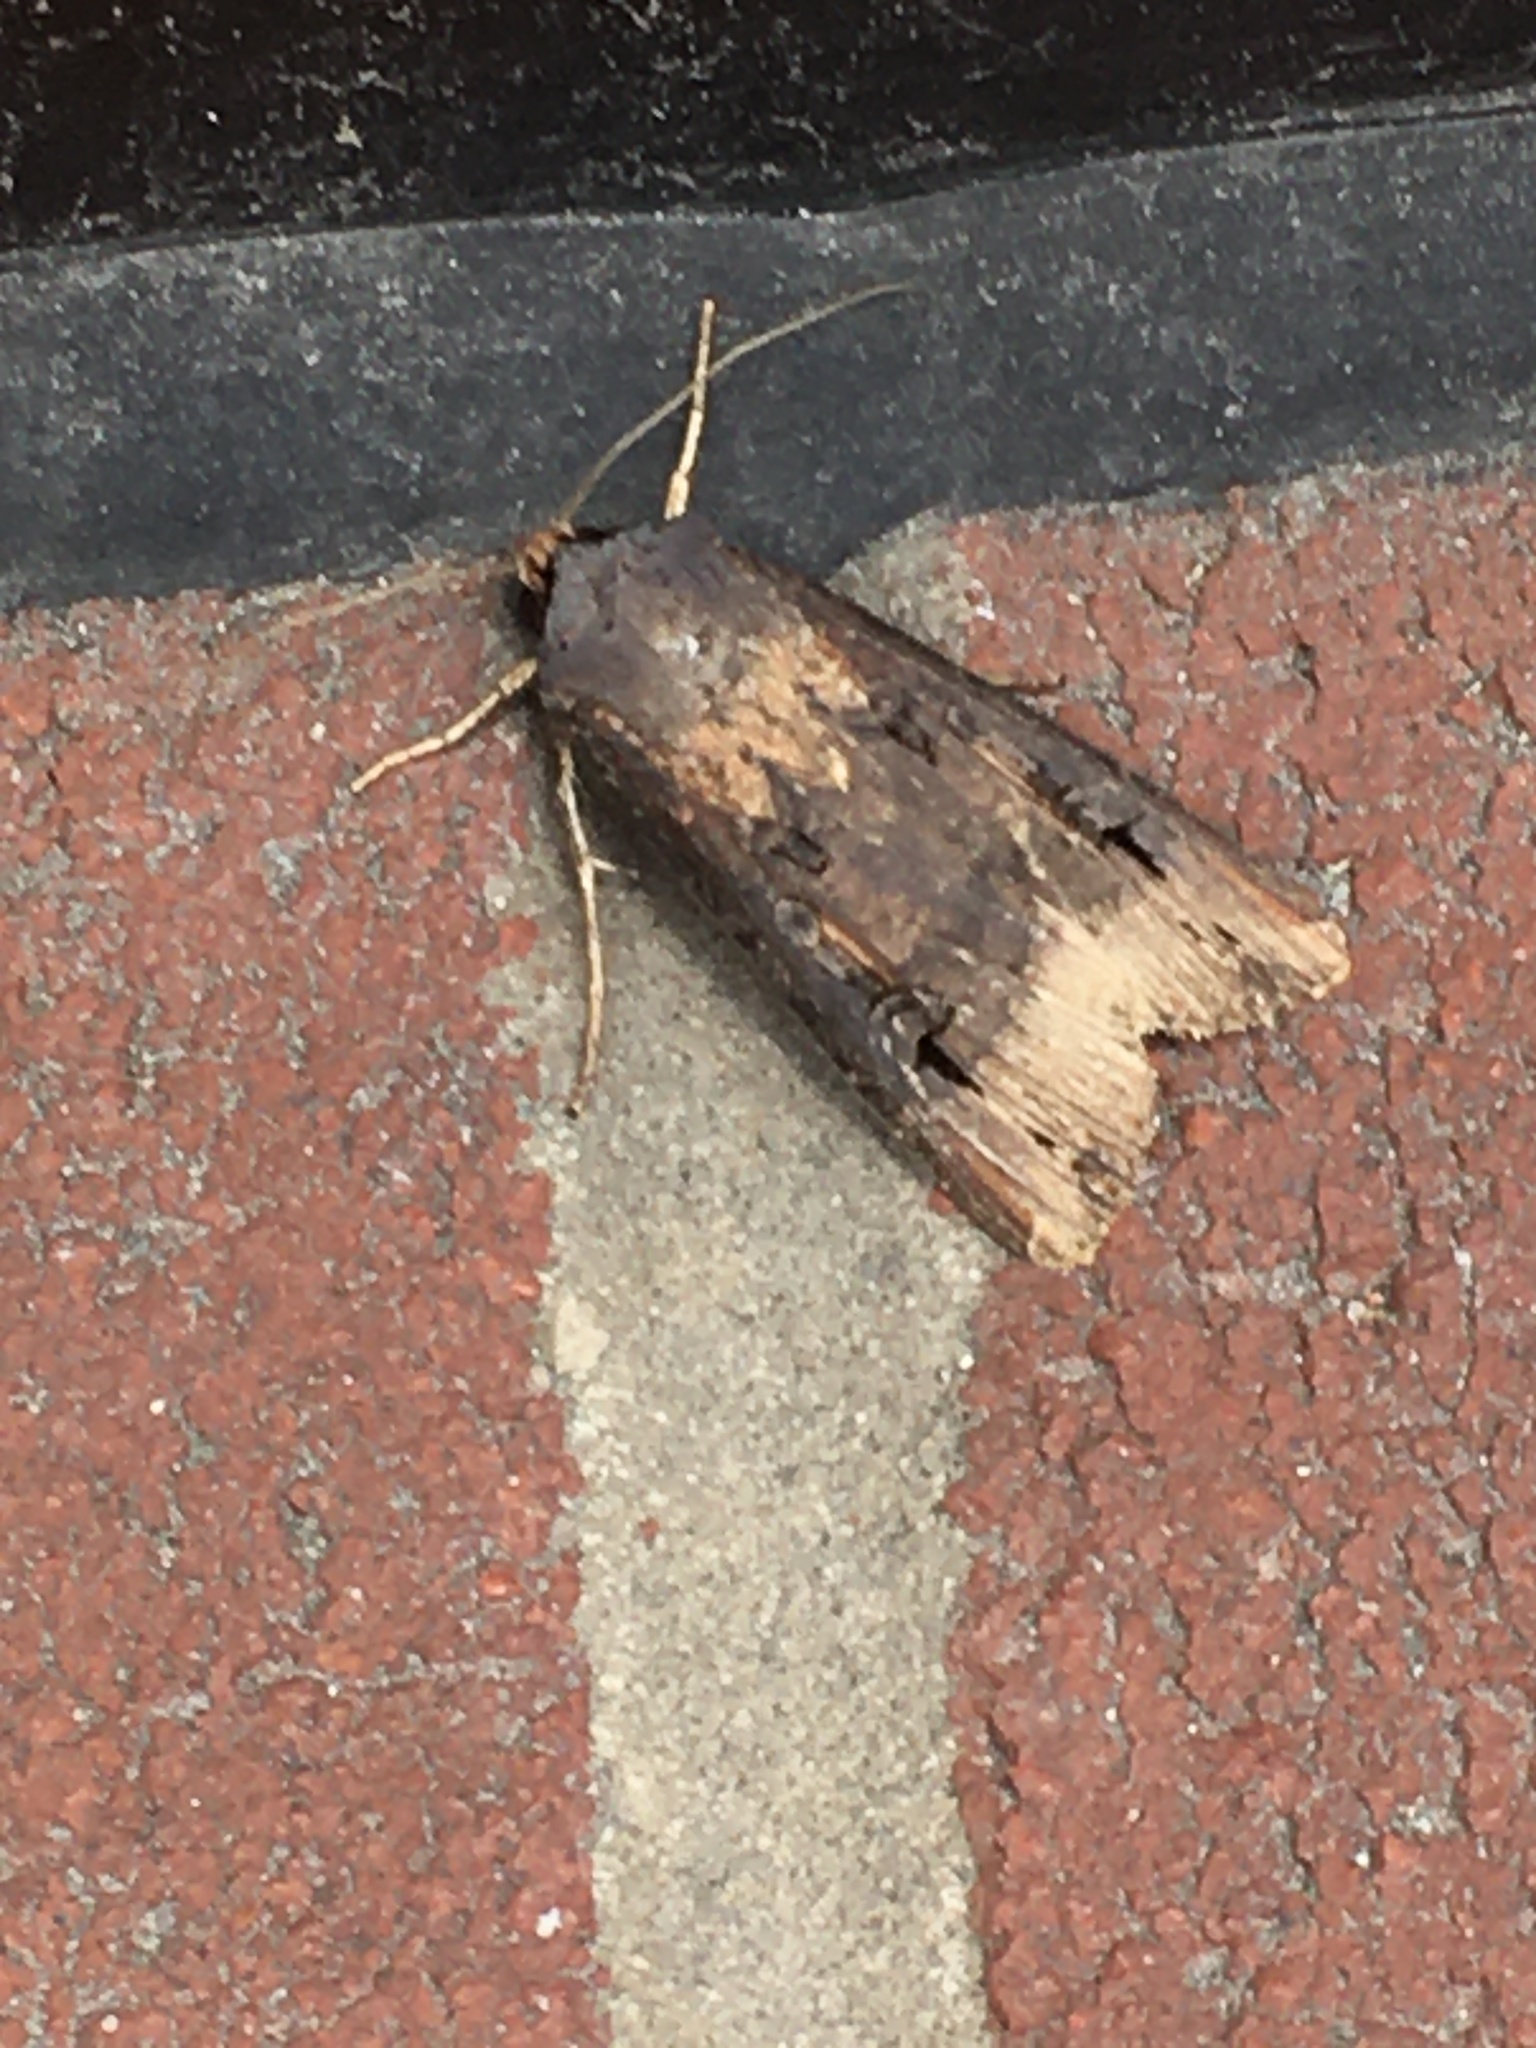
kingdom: Animalia
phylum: Arthropoda
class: Insecta
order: Lepidoptera
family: Noctuidae
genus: Agrotis
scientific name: Agrotis ipsilon
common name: Dark sword-grass
